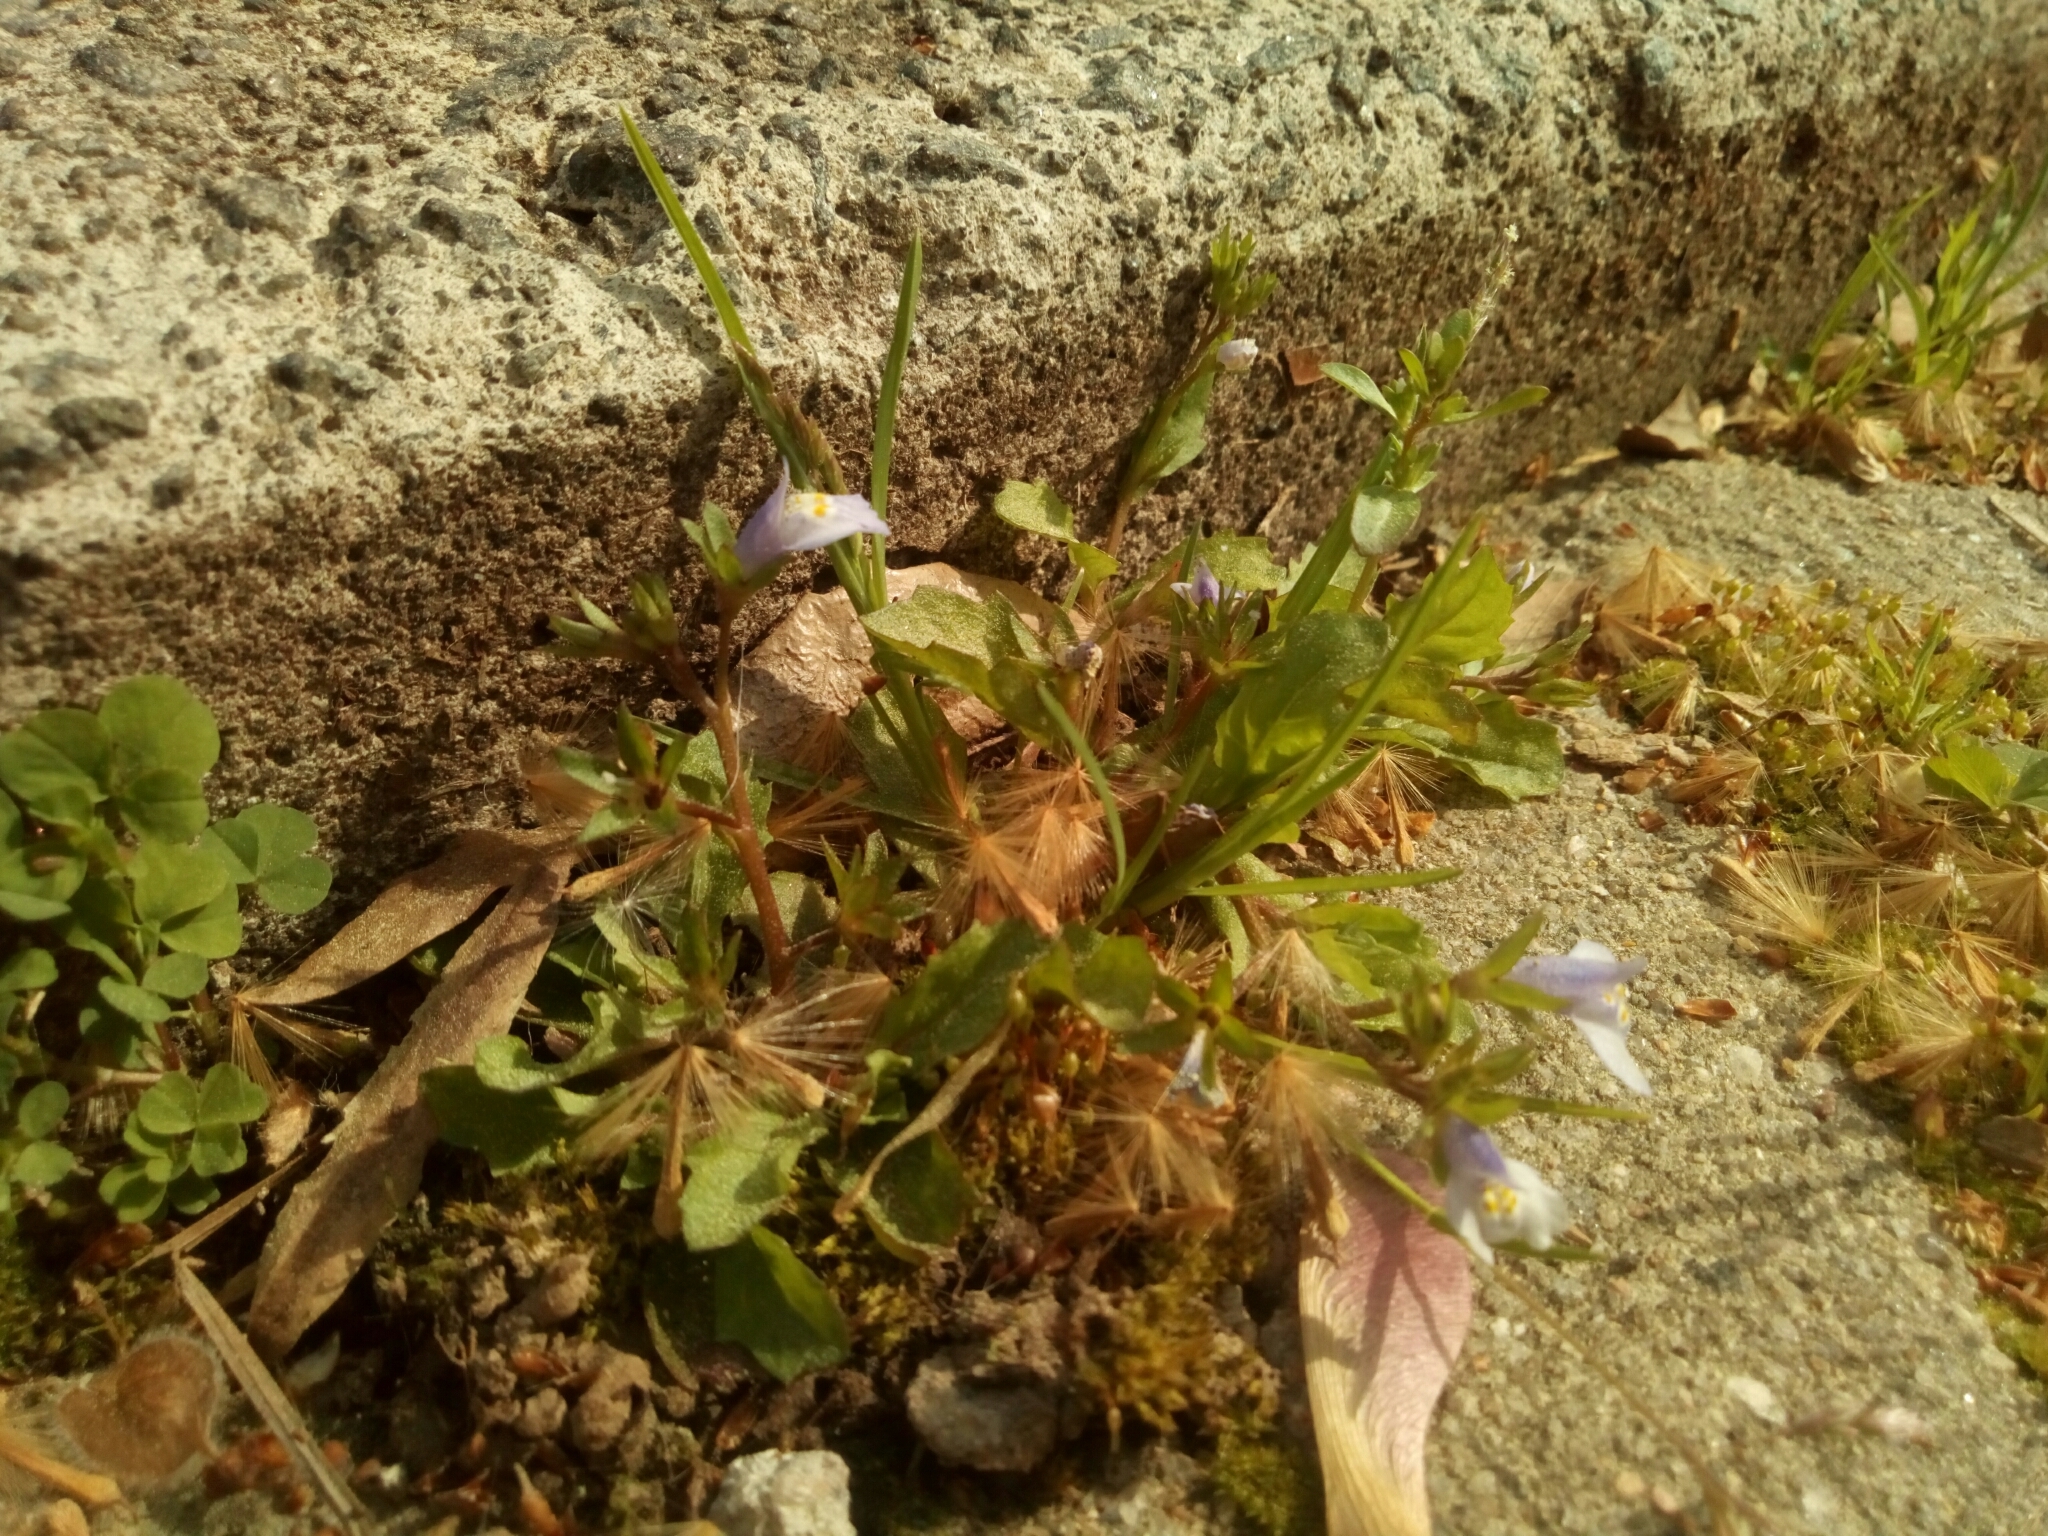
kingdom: Plantae
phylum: Tracheophyta
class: Magnoliopsida
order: Lamiales
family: Mazaceae
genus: Mazus
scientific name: Mazus pumilus
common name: Japanese mazus
